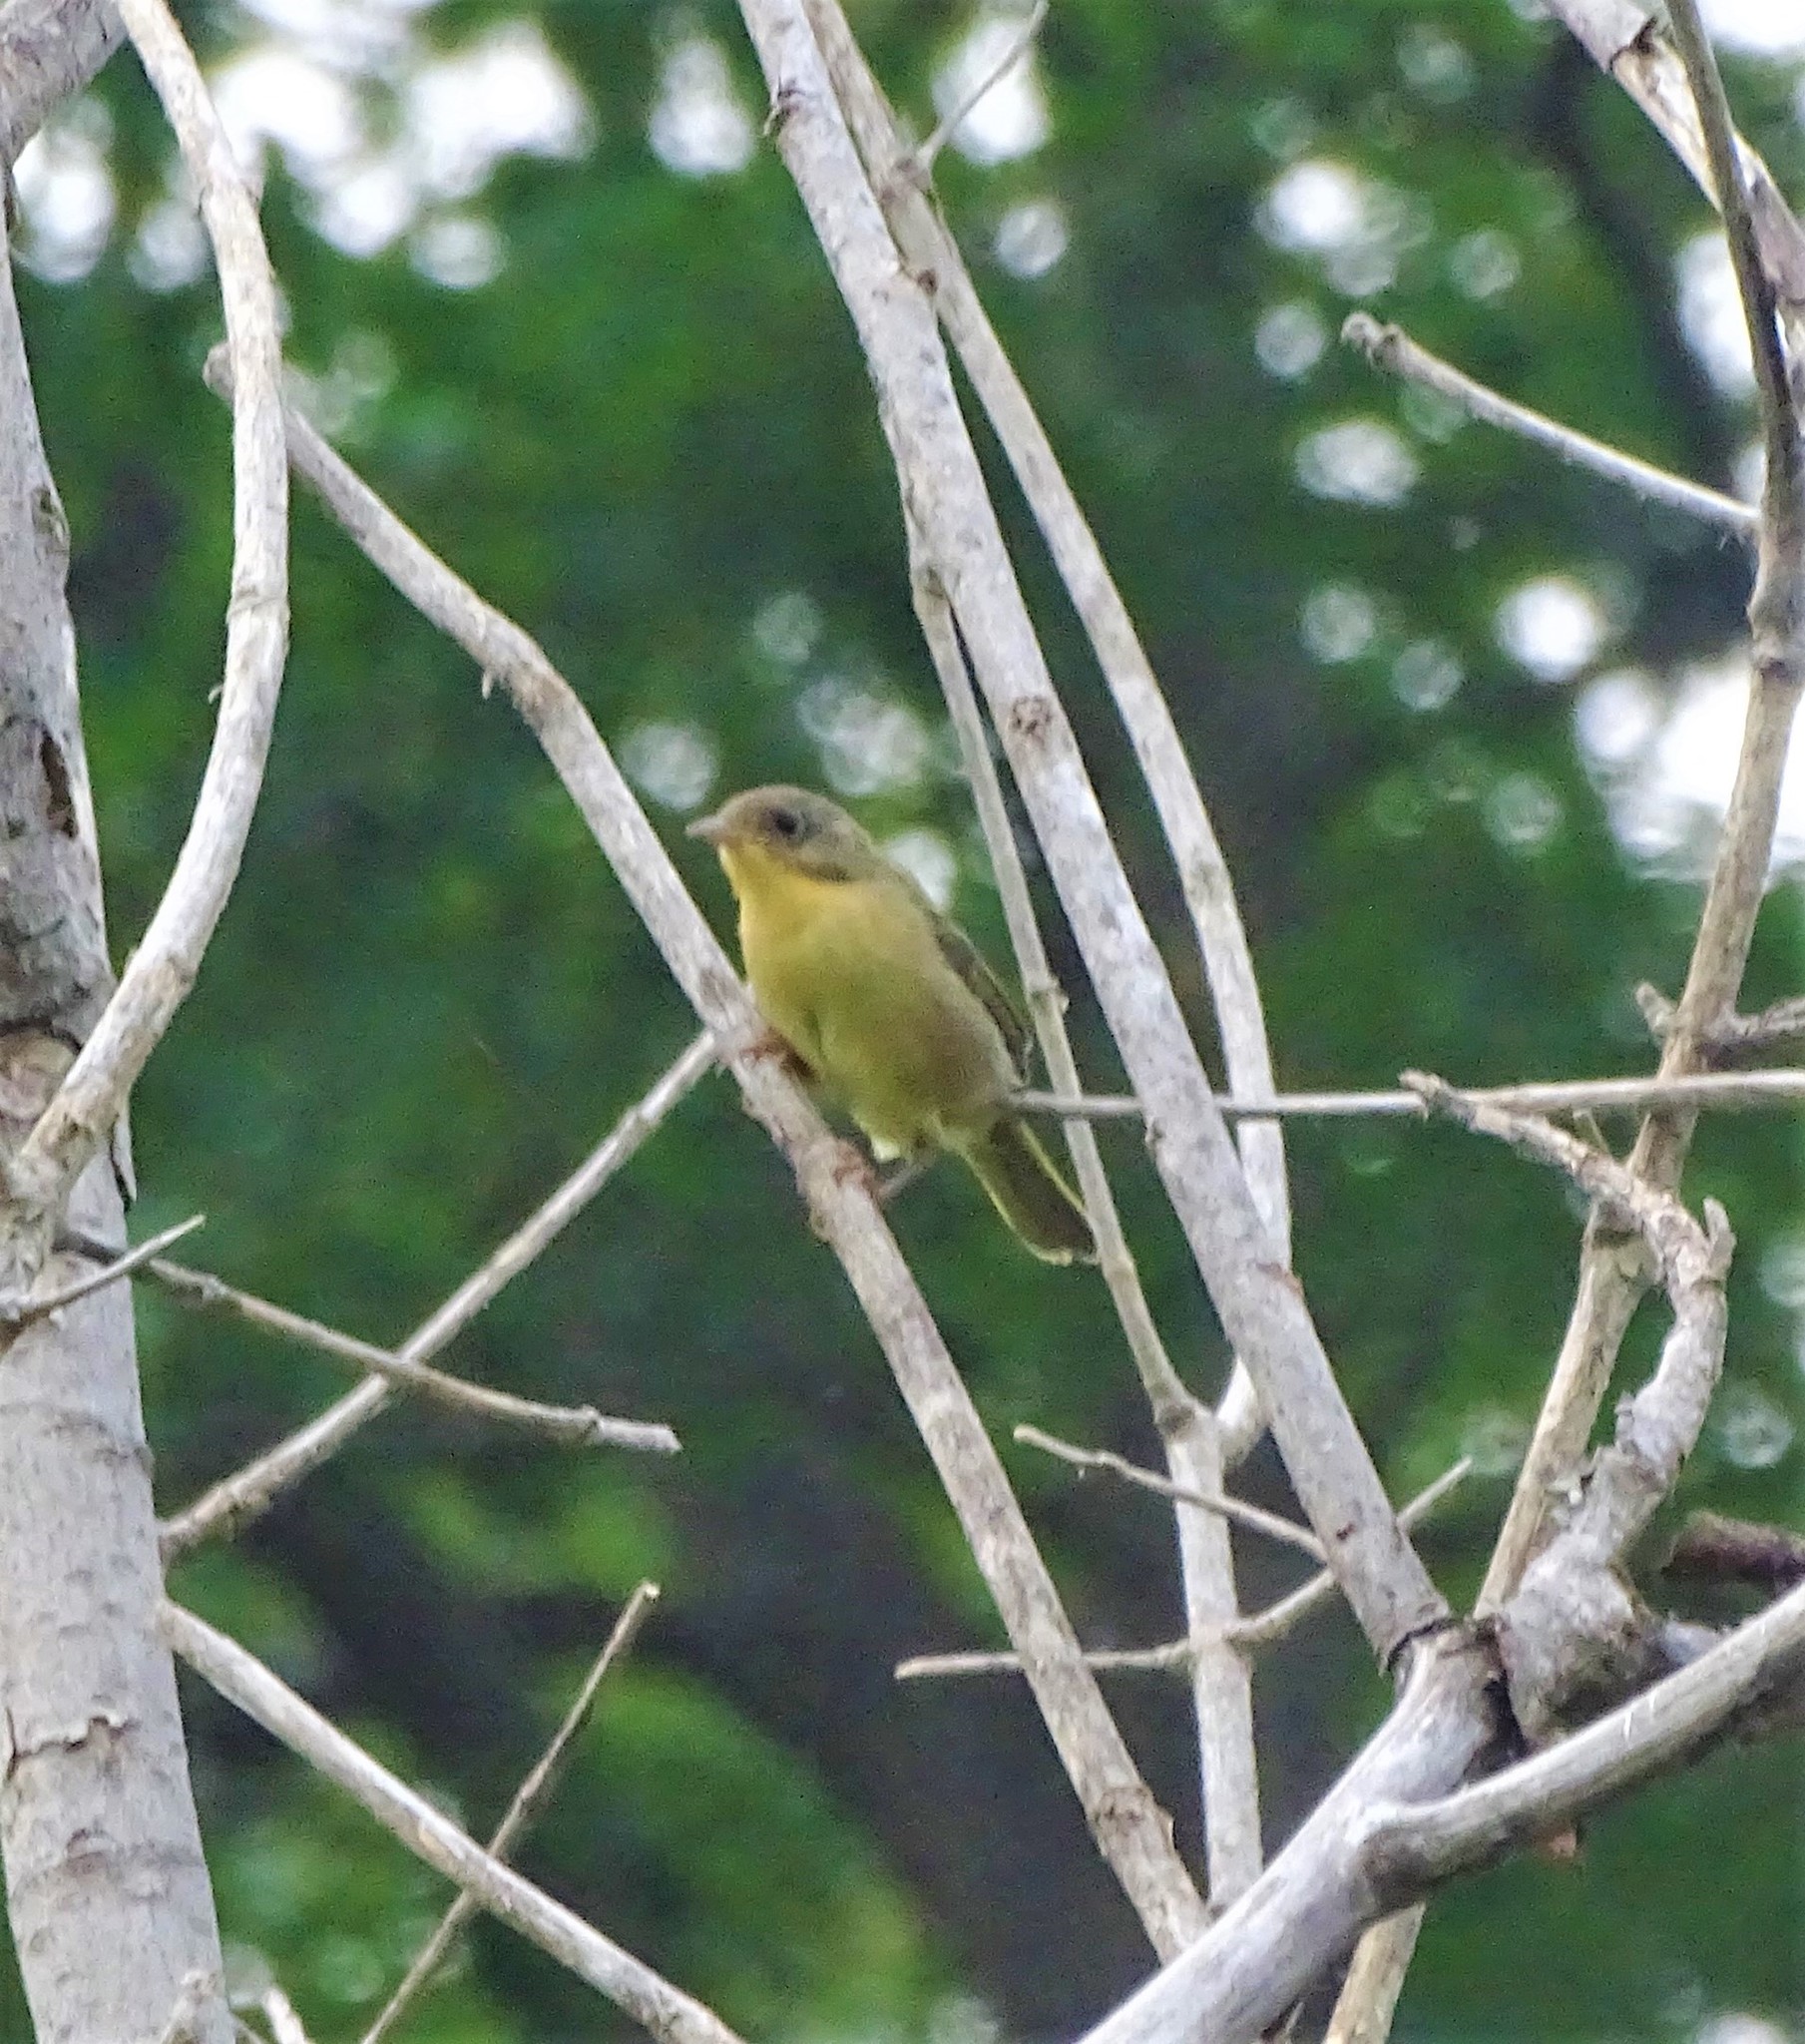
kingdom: Animalia
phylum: Chordata
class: Aves
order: Passeriformes
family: Parulidae
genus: Geothlypis
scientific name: Geothlypis trichas
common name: Common yellowthroat
